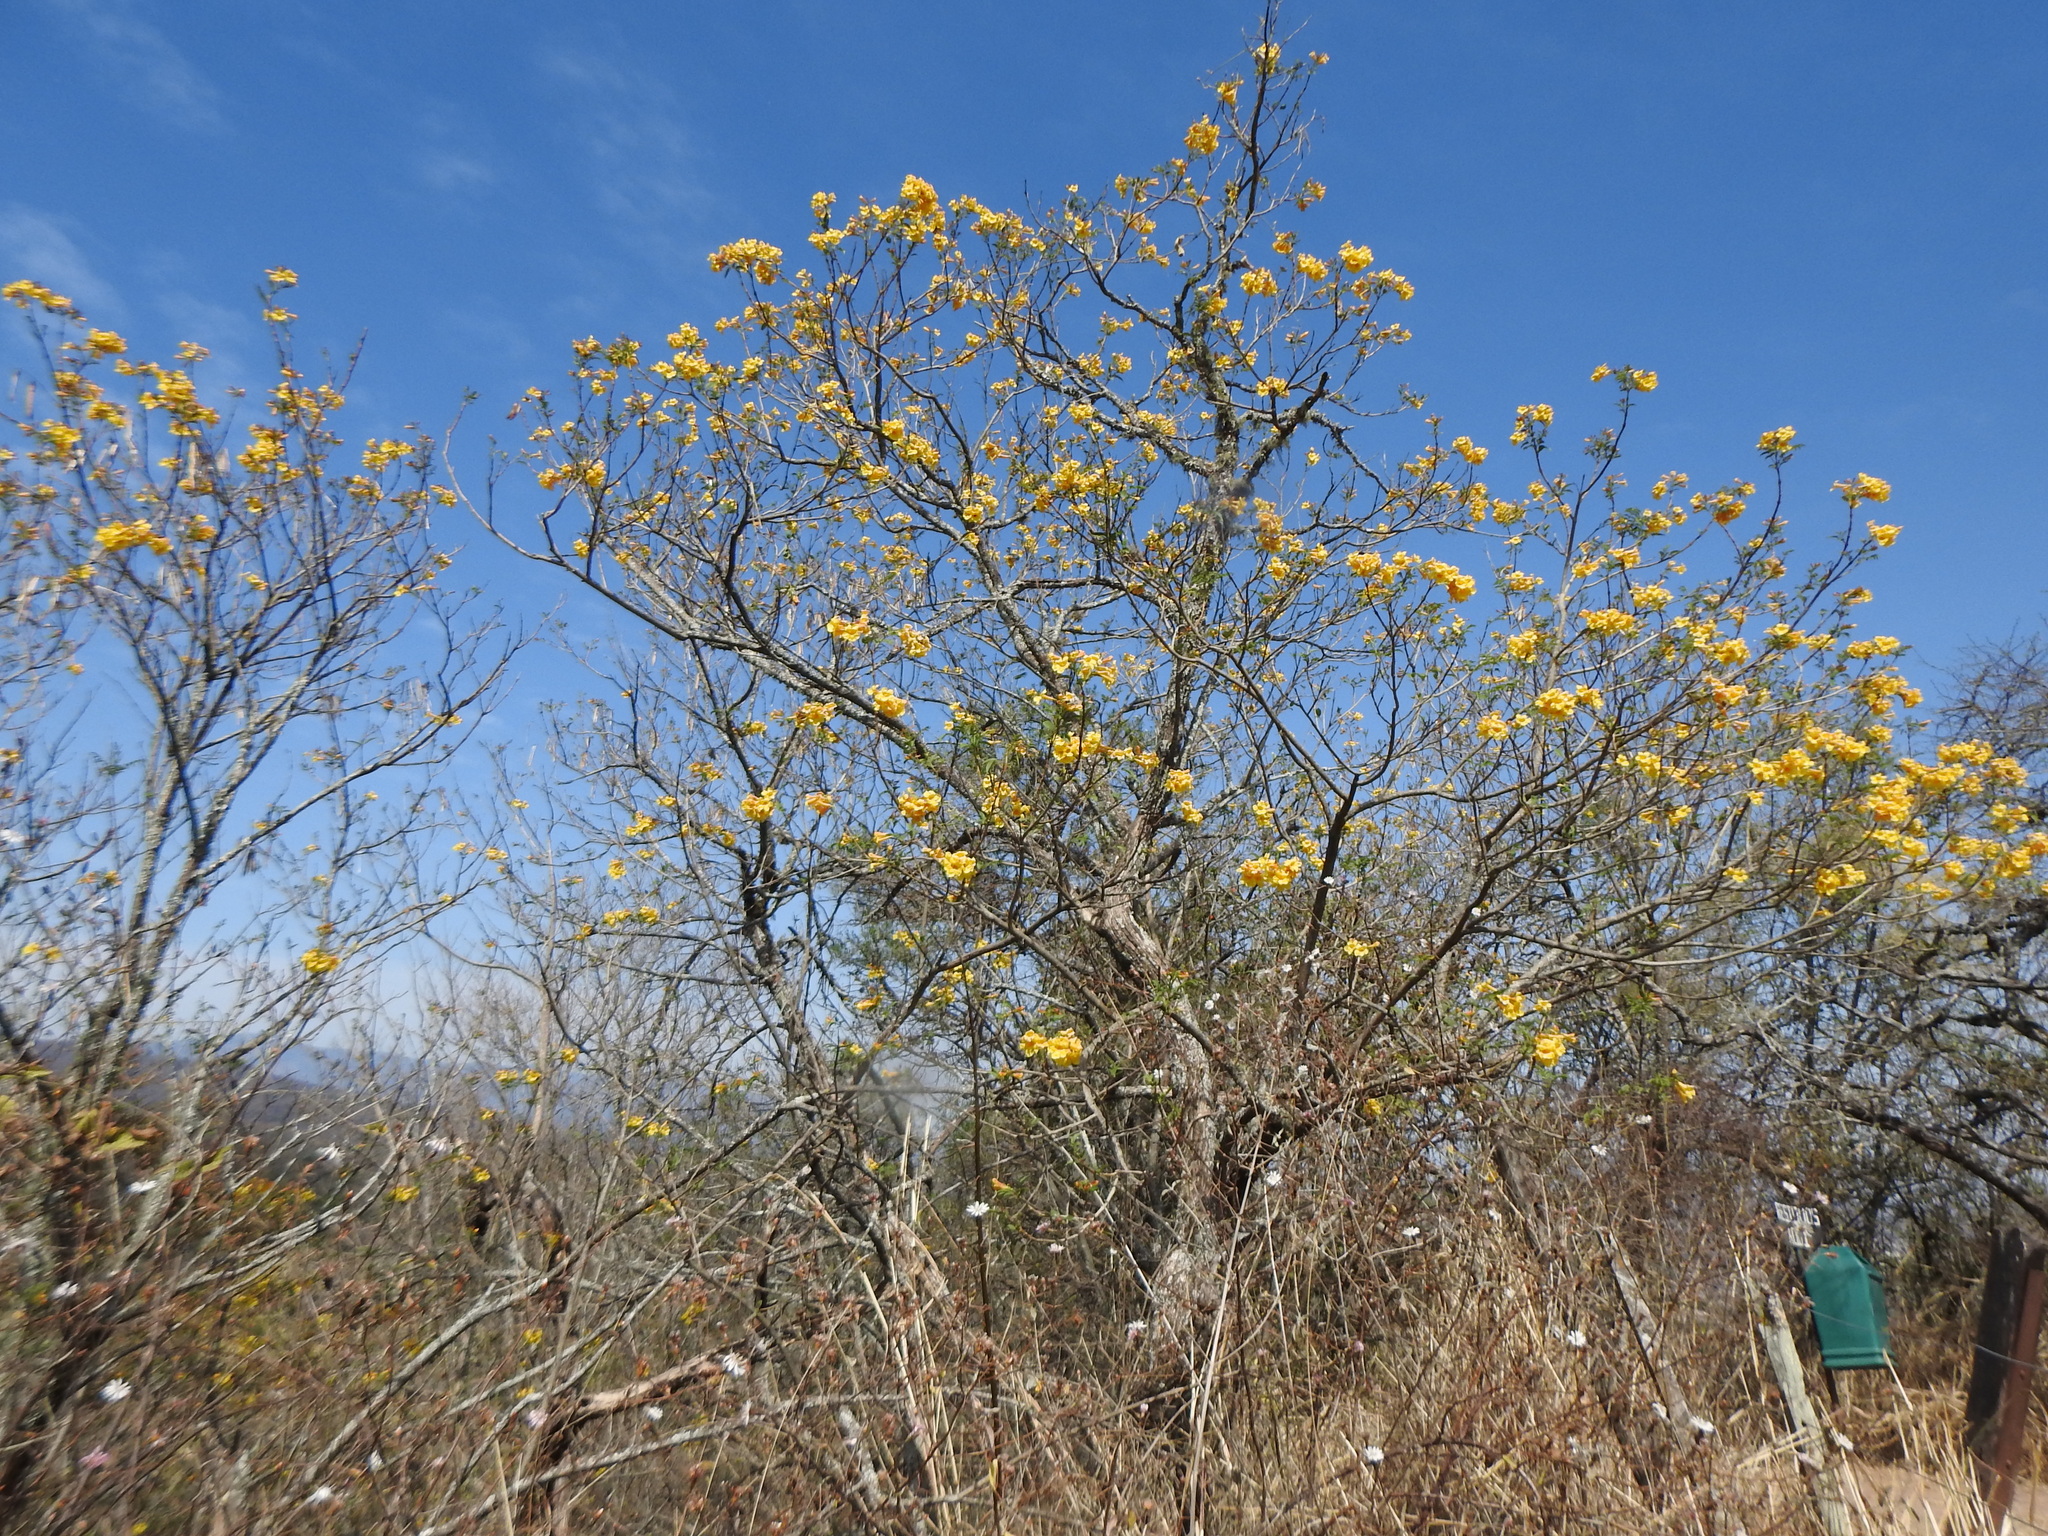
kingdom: Plantae
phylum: Tracheophyta
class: Magnoliopsida
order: Lamiales
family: Bignoniaceae
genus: Tecoma
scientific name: Tecoma stans
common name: Yellow trumpetbush
